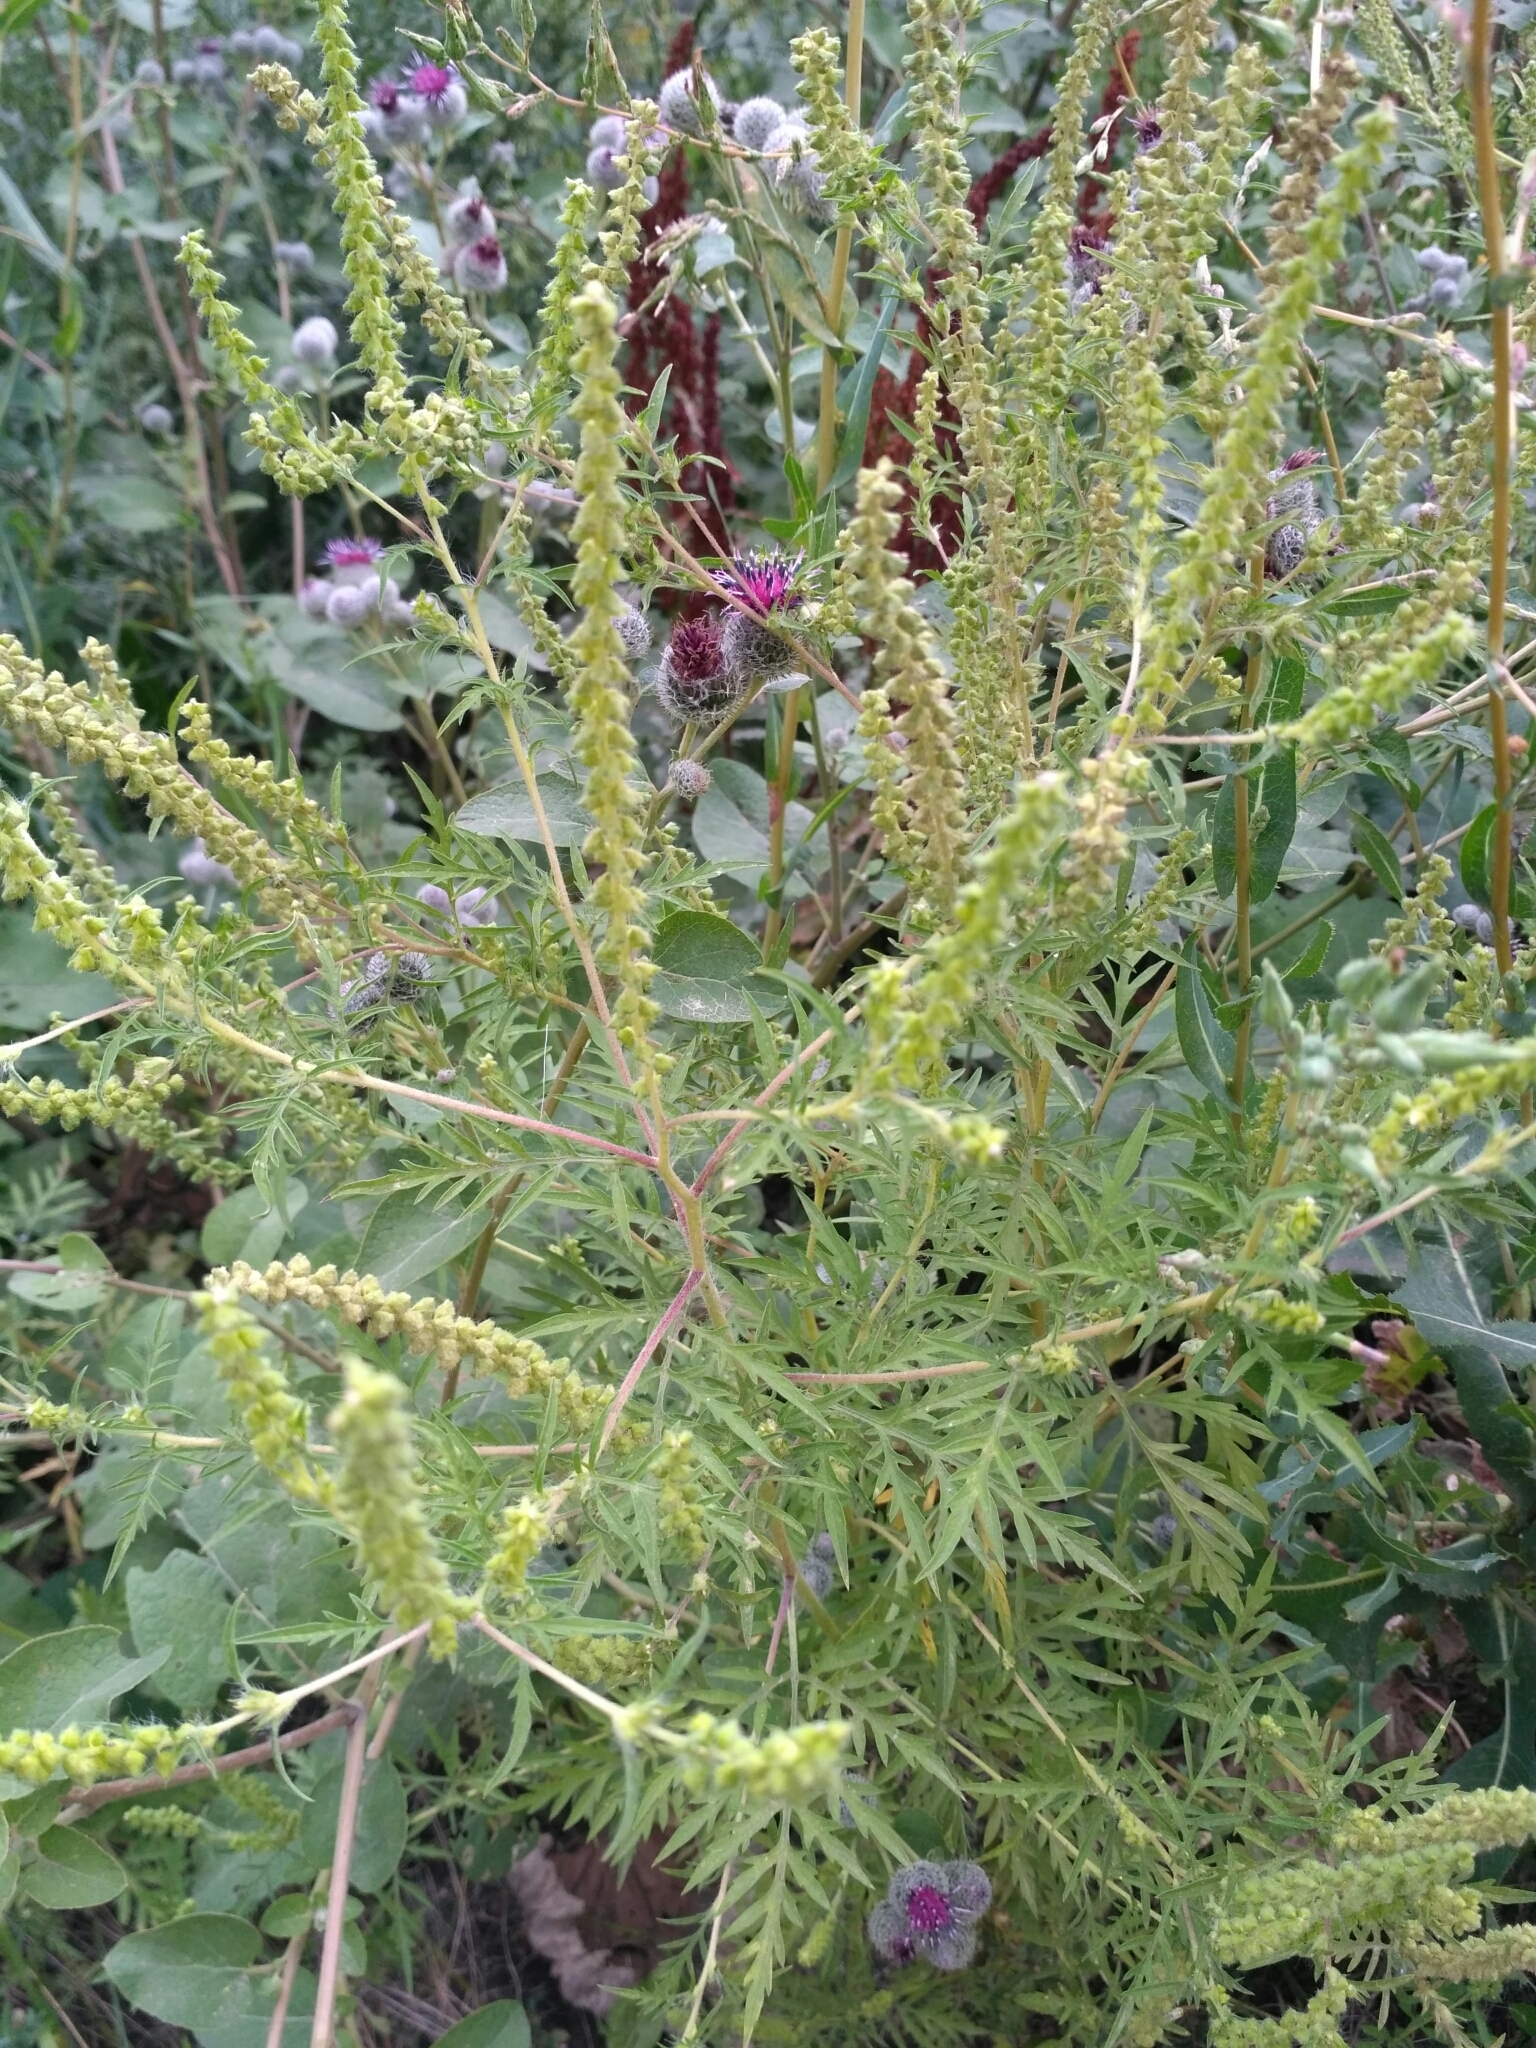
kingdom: Plantae
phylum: Tracheophyta
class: Magnoliopsida
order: Asterales
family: Asteraceae
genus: Ambrosia
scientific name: Ambrosia artemisiifolia
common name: Annual ragweed
